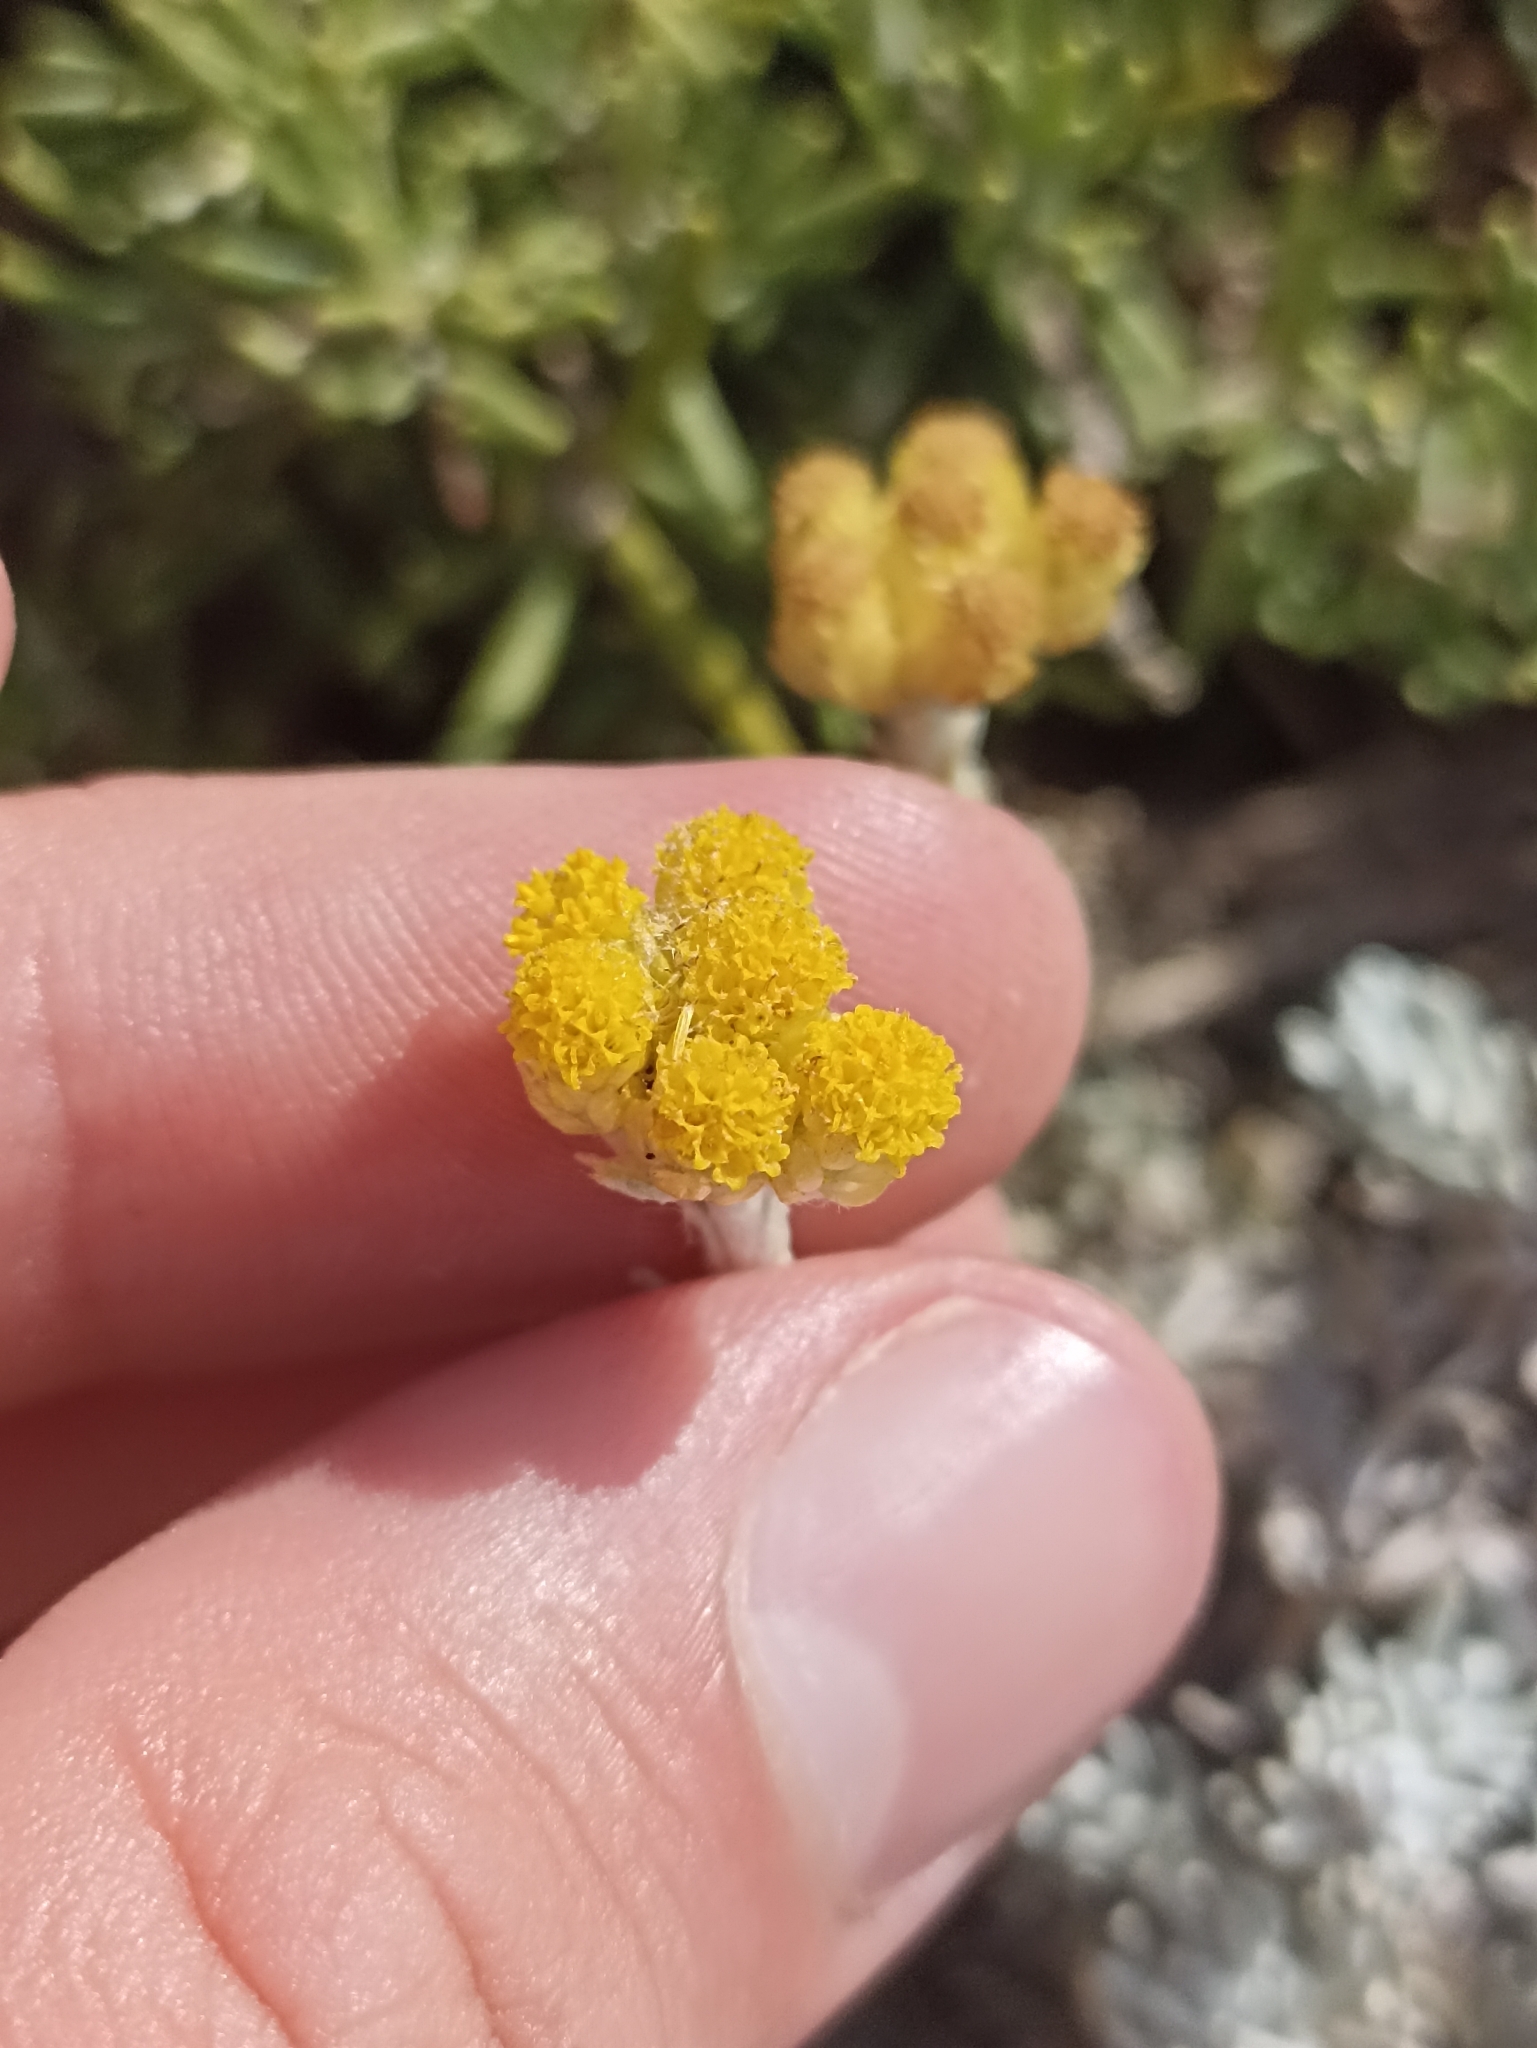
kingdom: Plantae
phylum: Tracheophyta
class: Magnoliopsida
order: Asterales
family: Asteraceae
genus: Helichrysum
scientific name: Helichrysum stoechas
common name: Goldilocks
